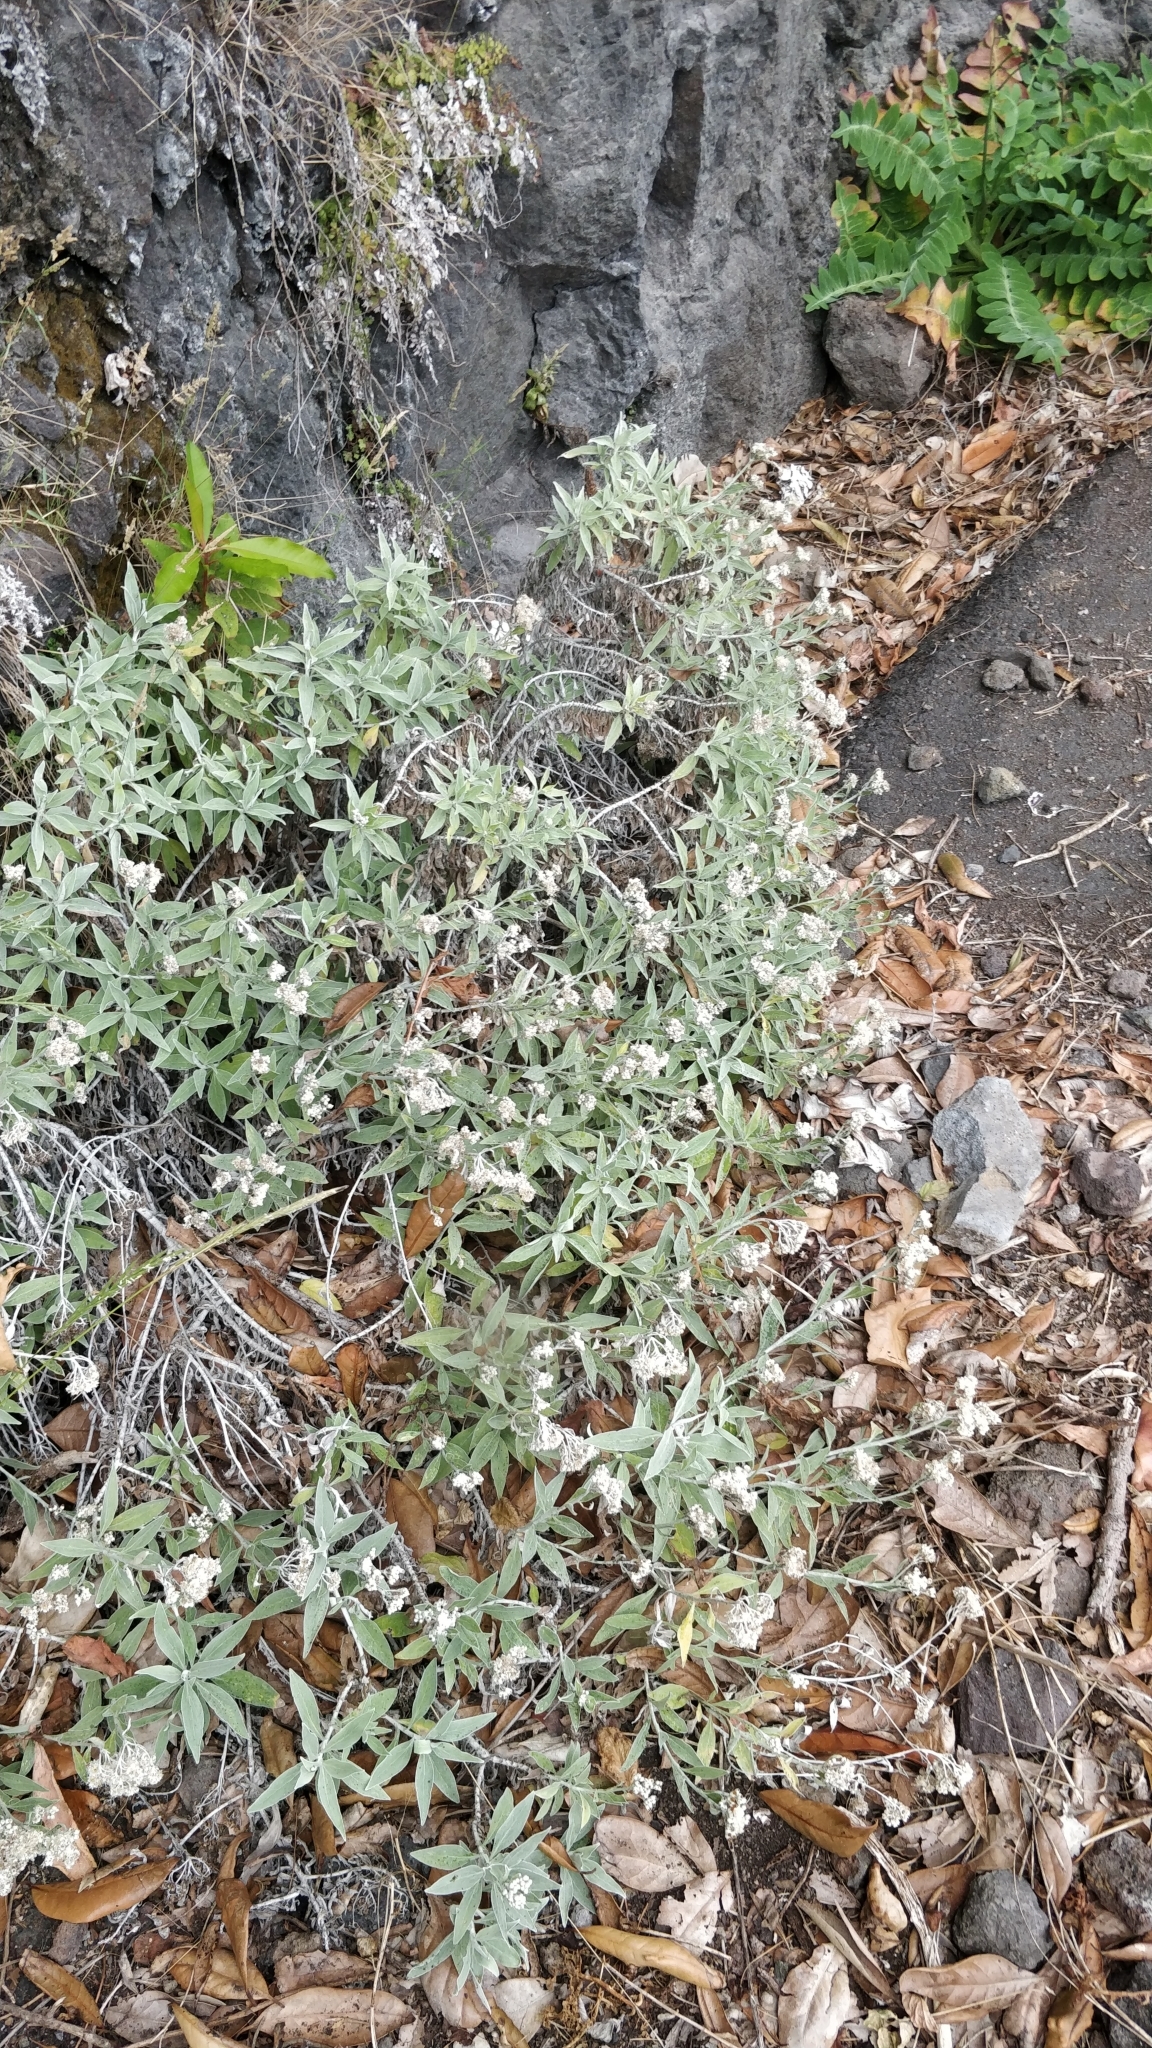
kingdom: Plantae
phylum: Tracheophyta
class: Magnoliopsida
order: Asterales
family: Asteraceae
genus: Helichrysum
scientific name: Helichrysum melaleucum
